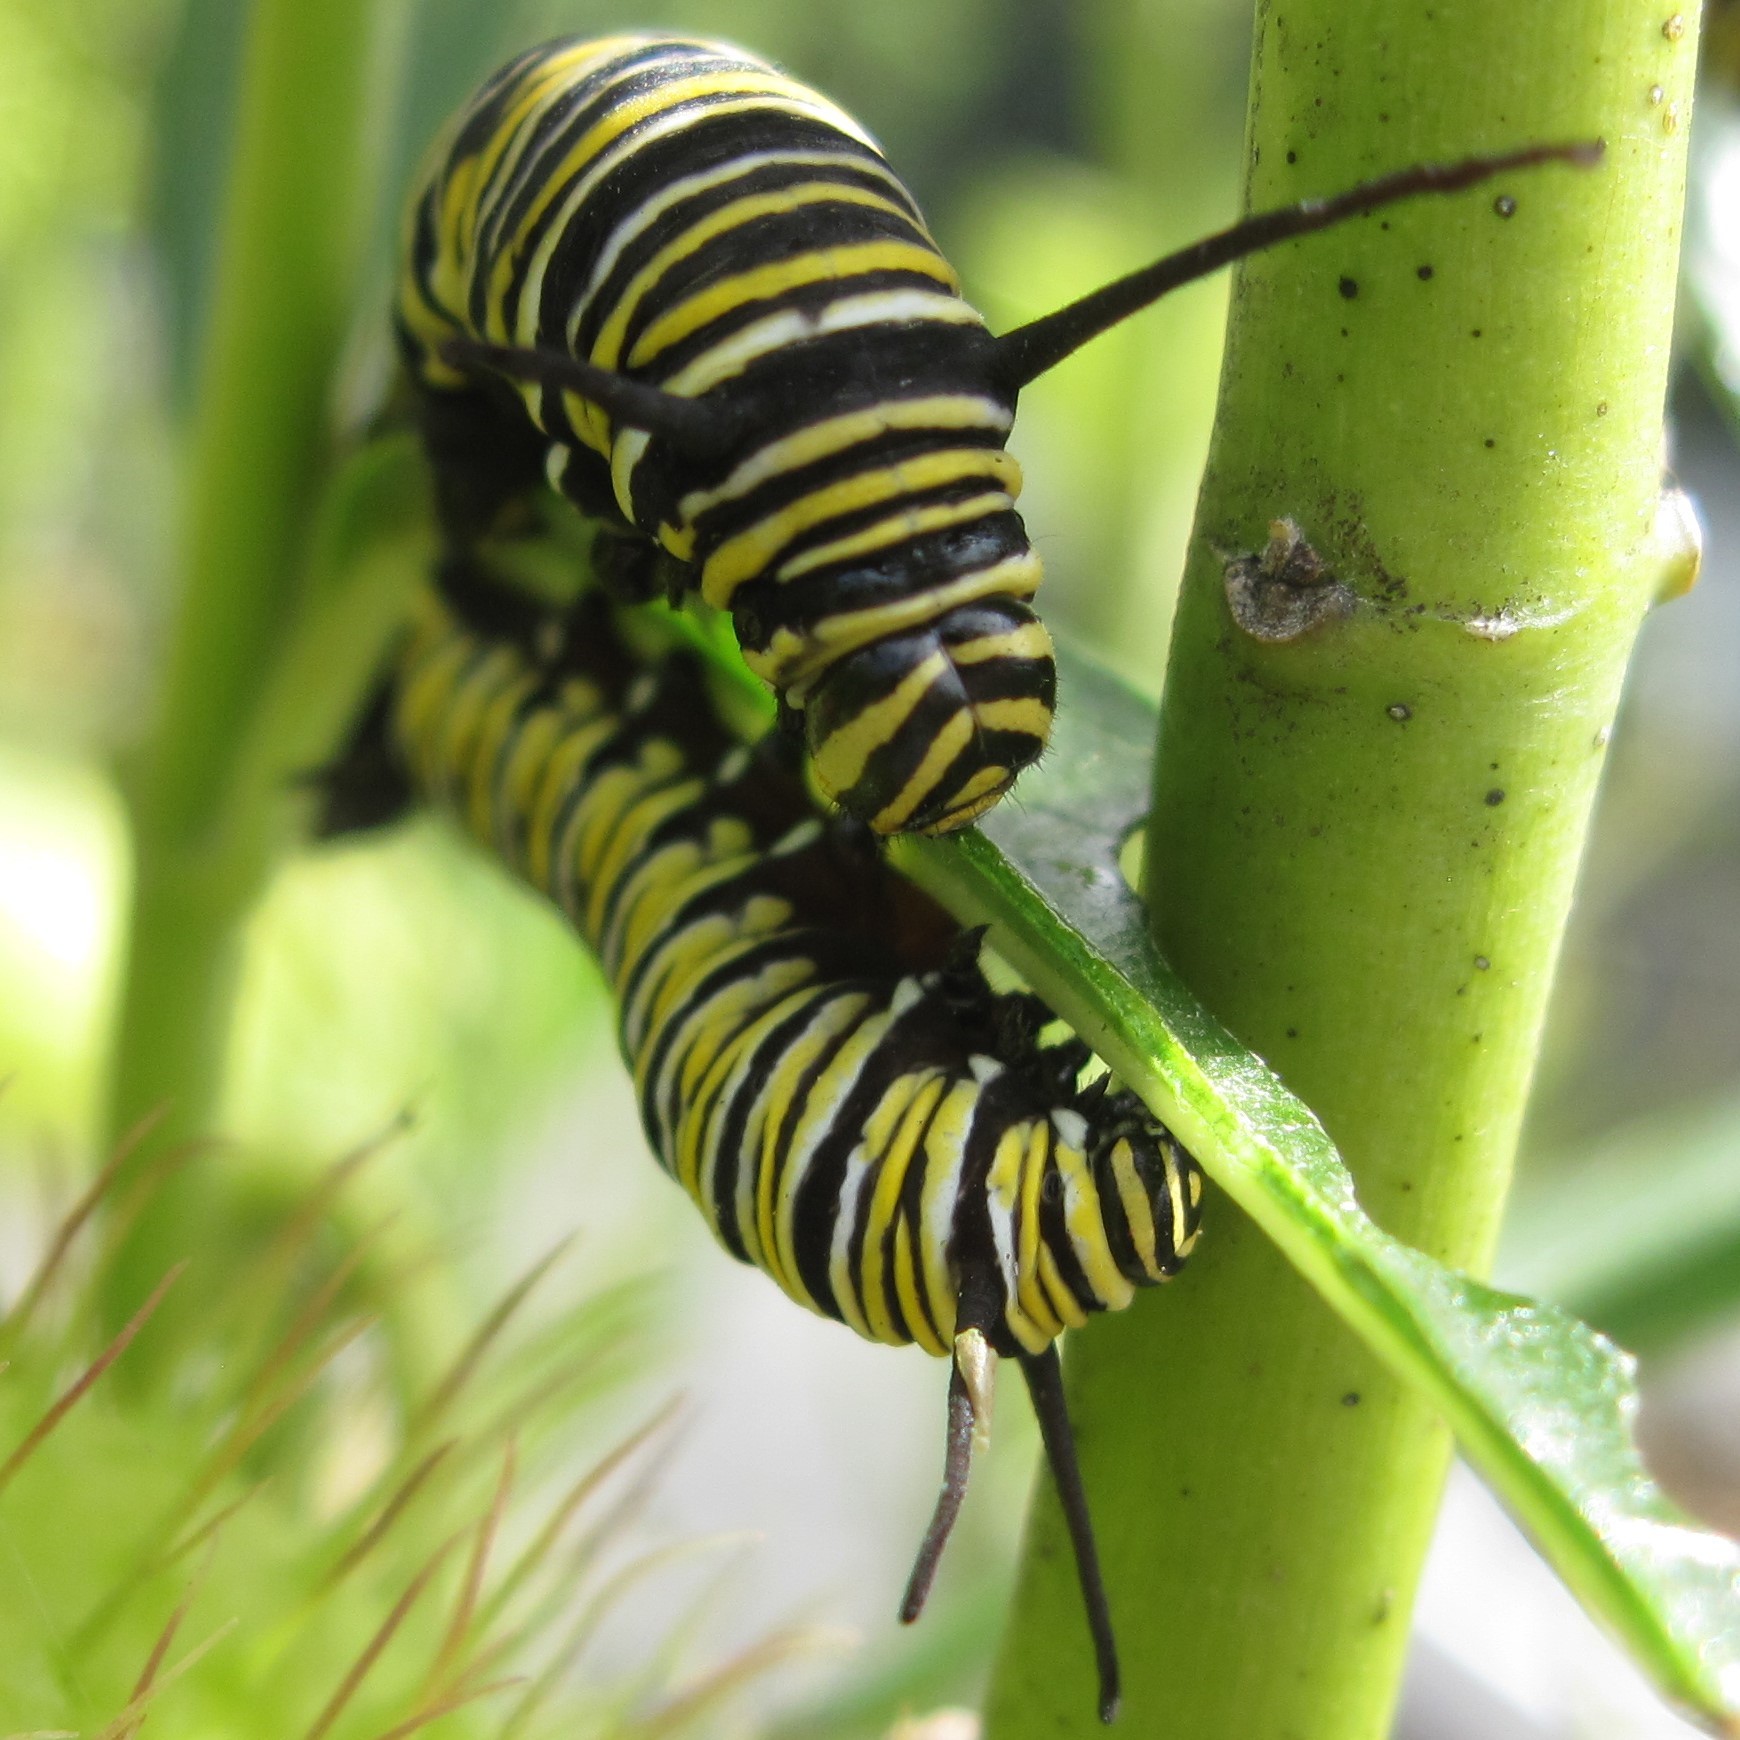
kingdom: Animalia
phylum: Arthropoda
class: Insecta
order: Lepidoptera
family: Nymphalidae
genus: Danaus
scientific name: Danaus plexippus
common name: Monarch
